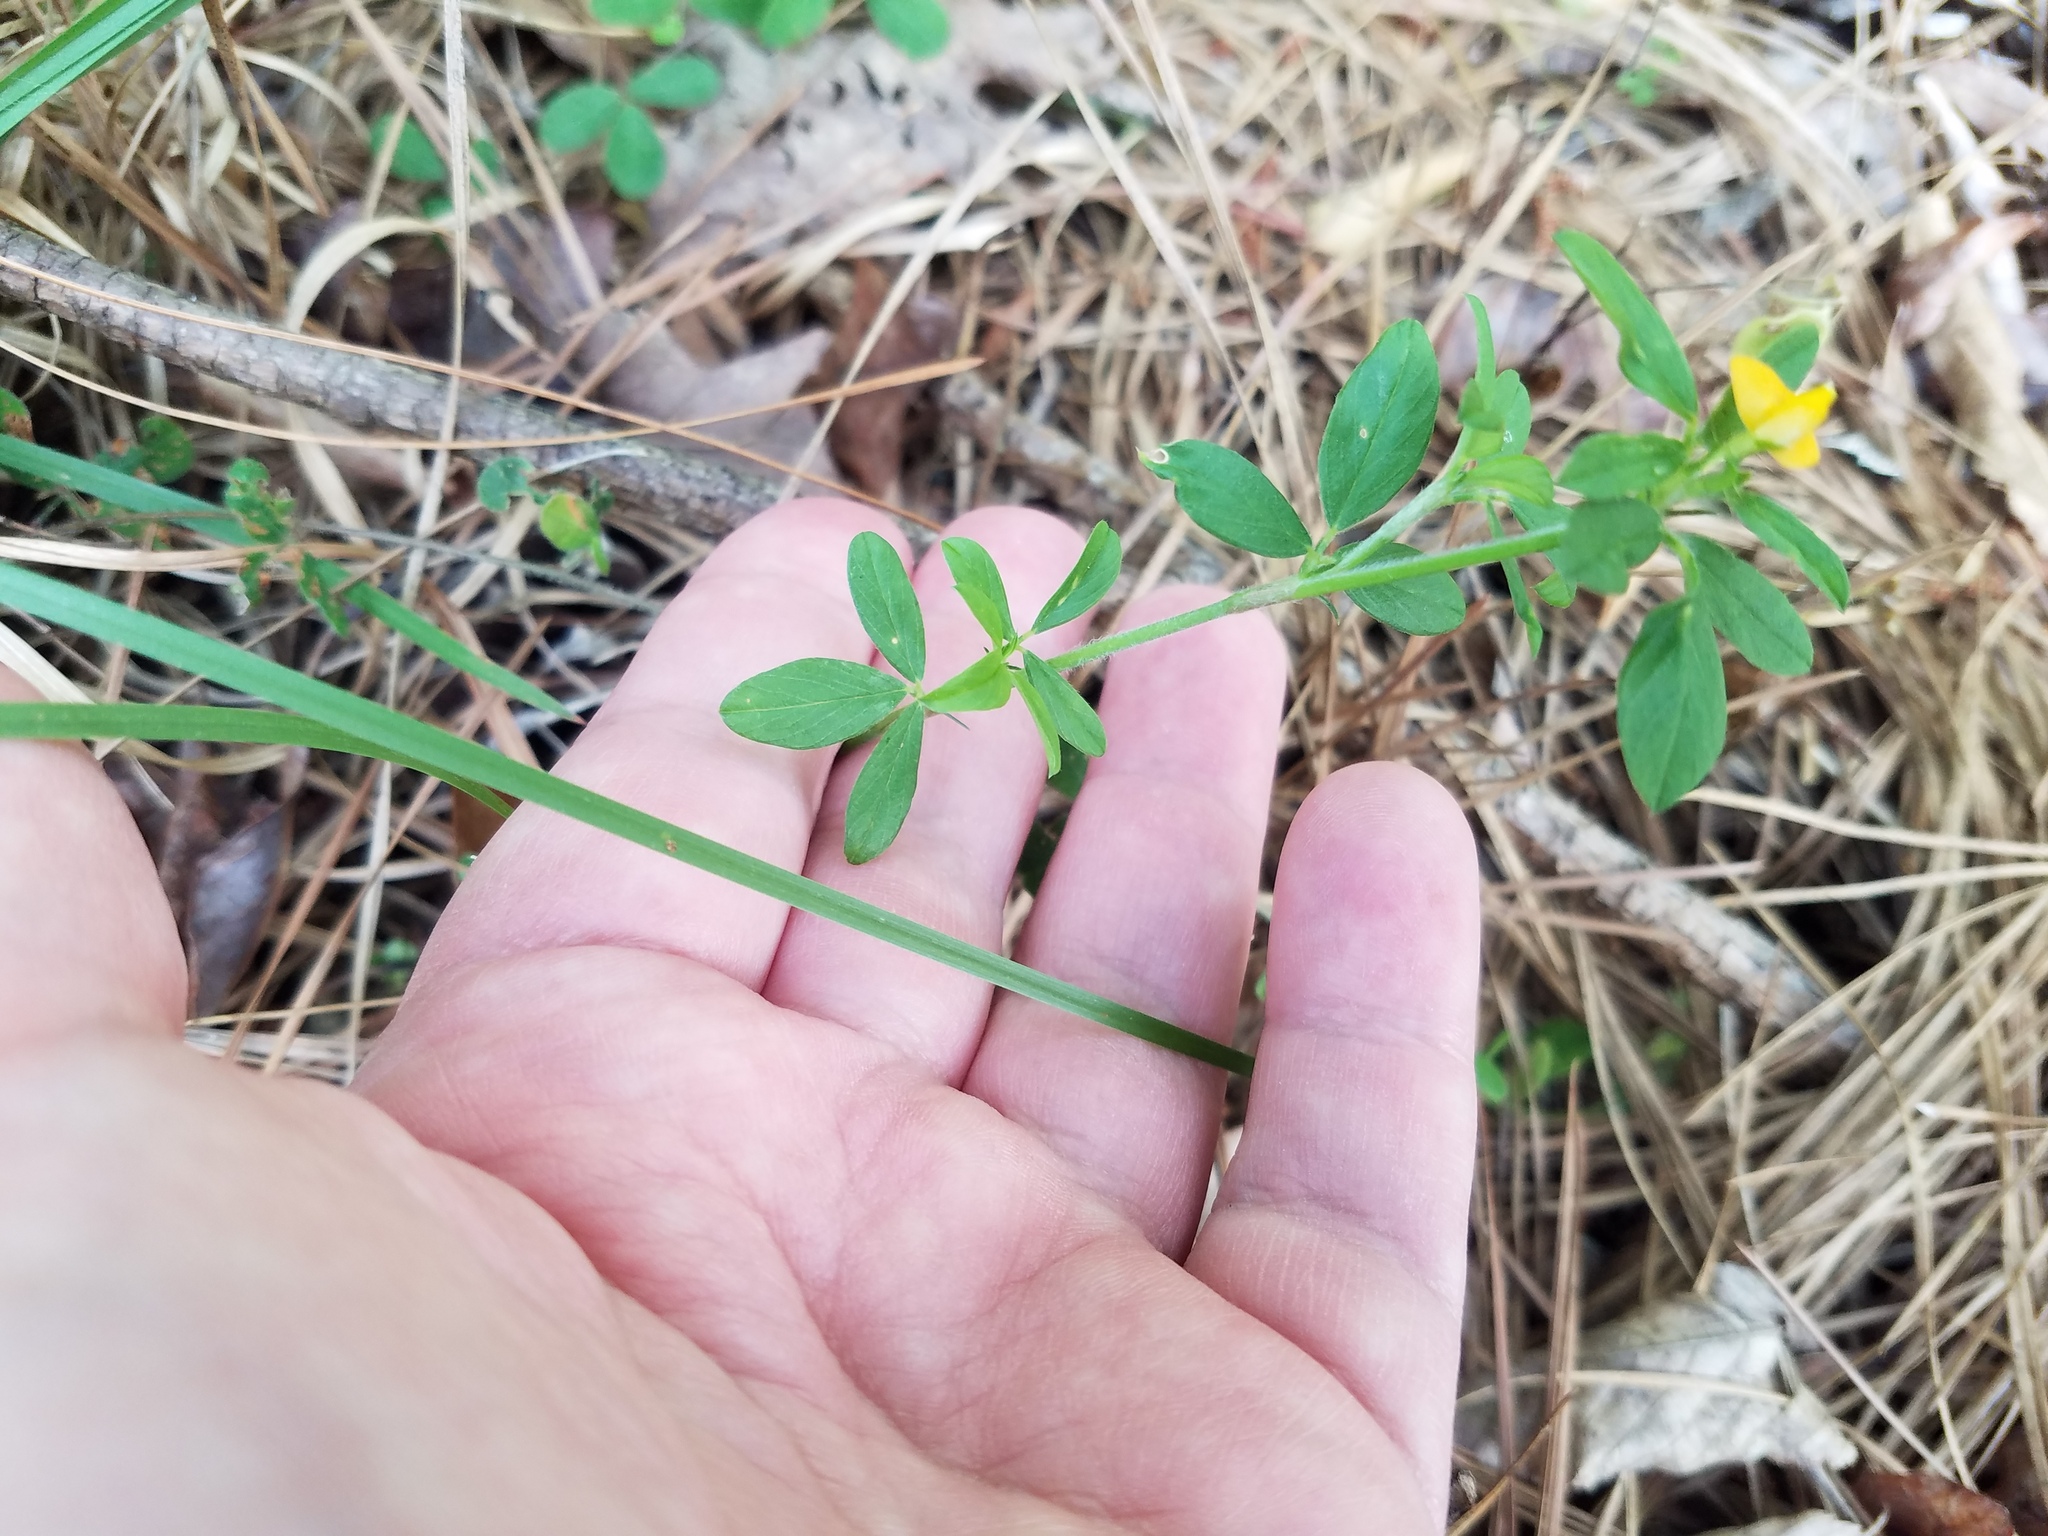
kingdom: Plantae
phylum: Tracheophyta
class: Magnoliopsida
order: Fabales
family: Fabaceae
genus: Stylosanthes
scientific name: Stylosanthes biflora
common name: Two-flower pencil-flower
